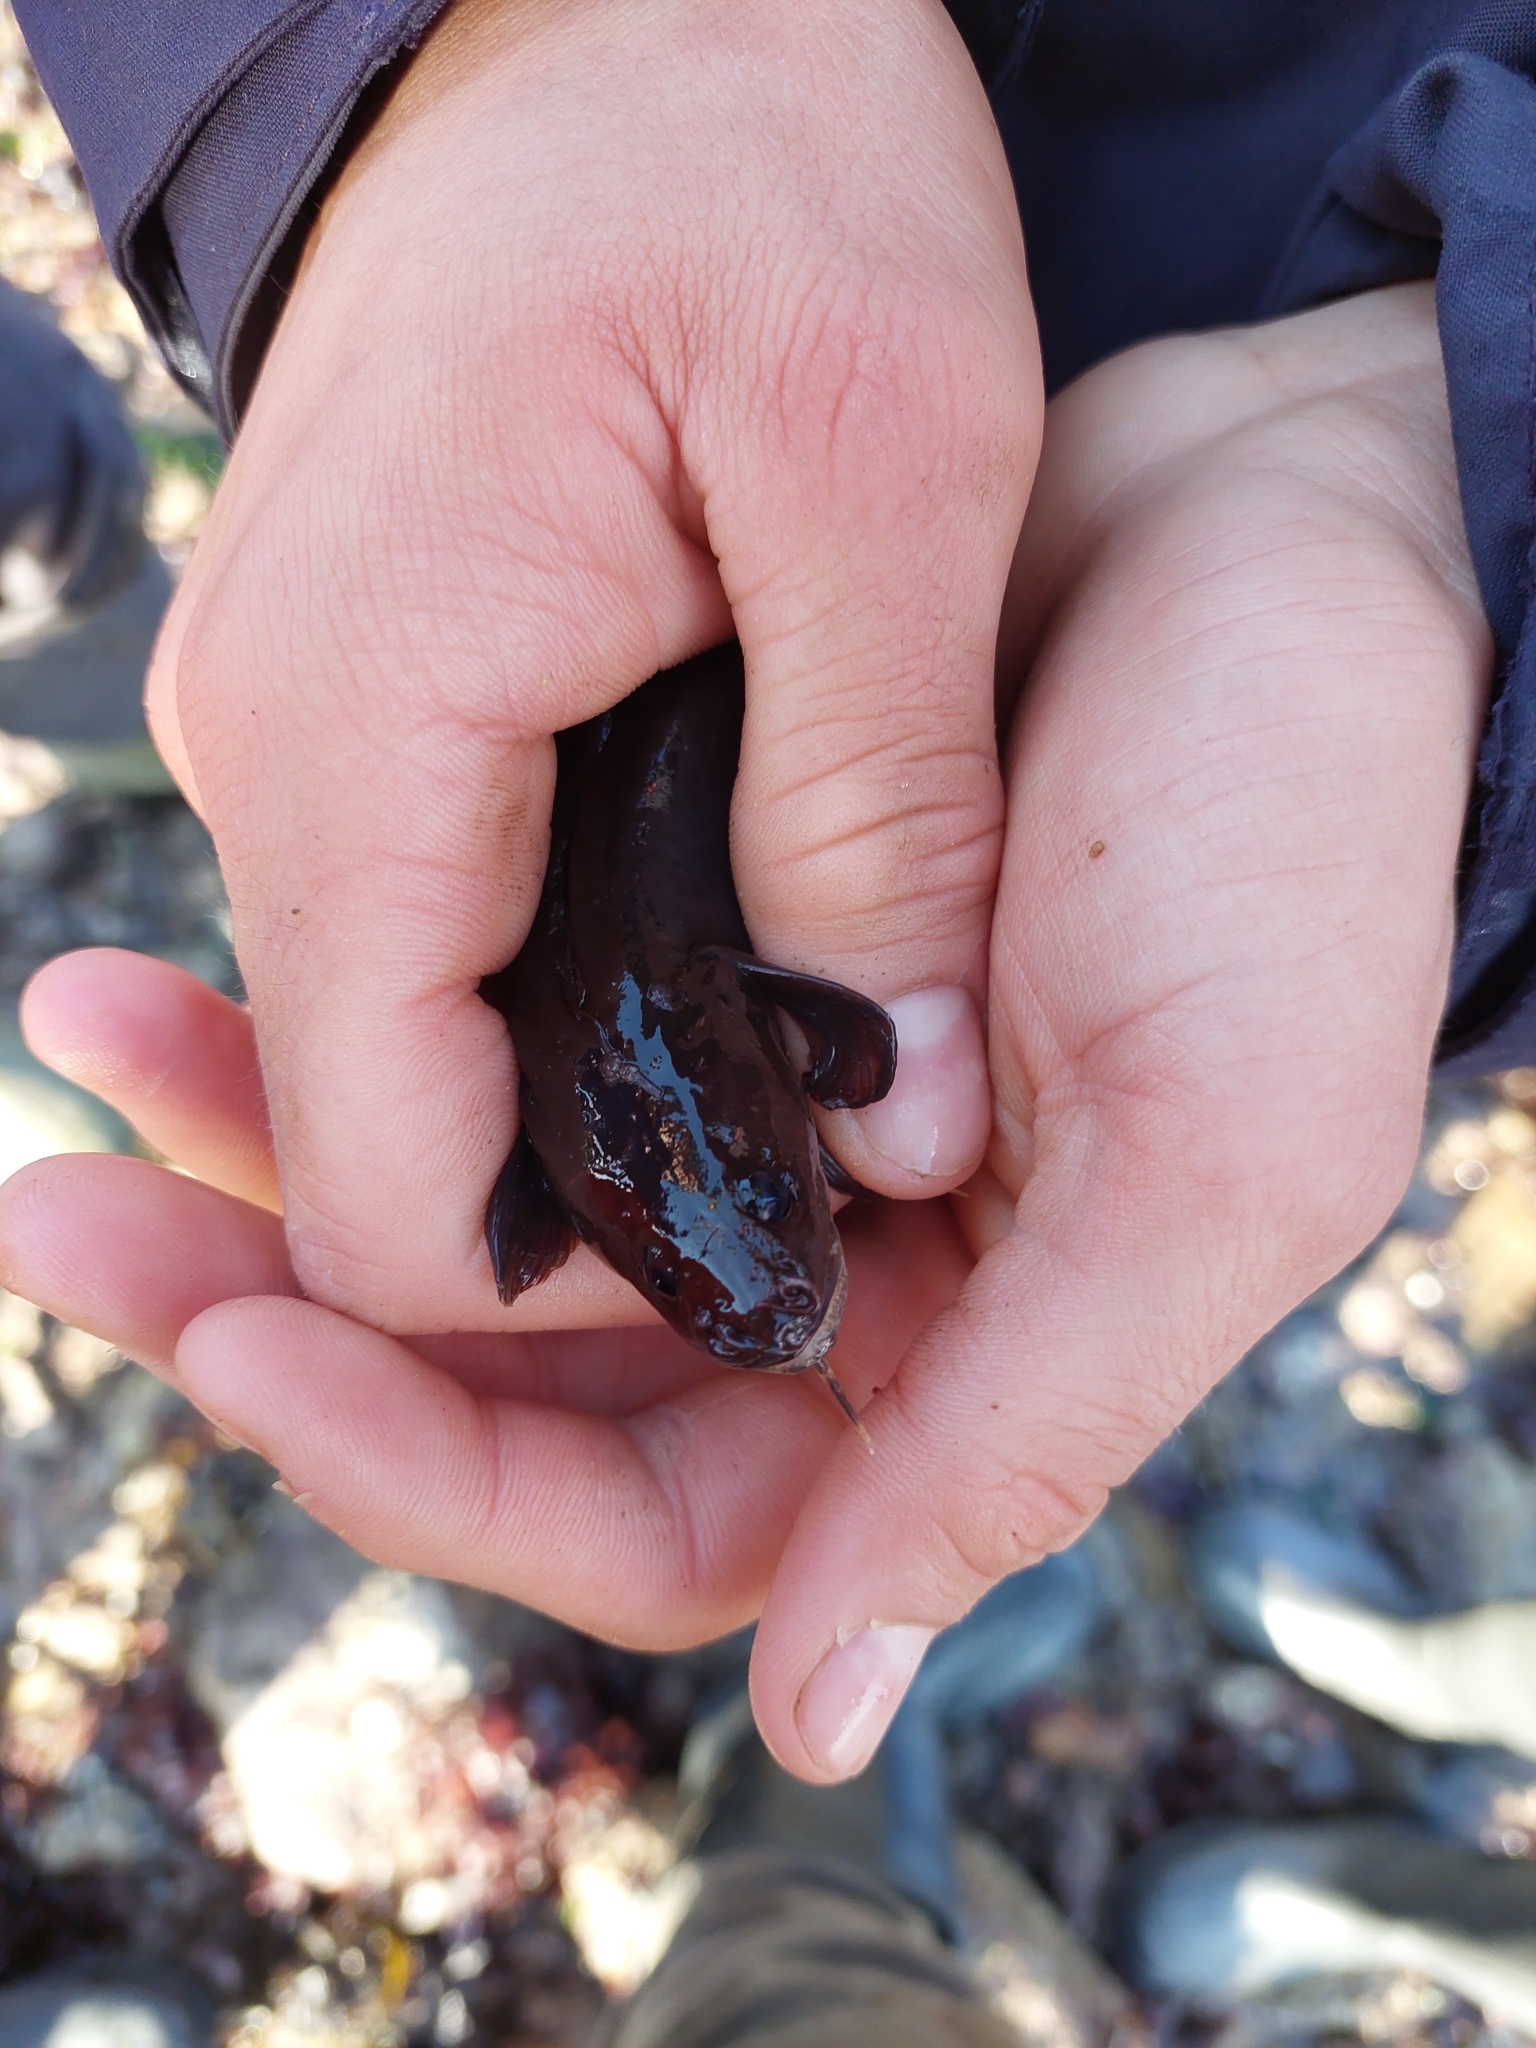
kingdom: Animalia
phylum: Chordata
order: Gadiformes
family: Lotidae
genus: Gaidropsarus
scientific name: Gaidropsarus mediterraneus
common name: Shore rockling
